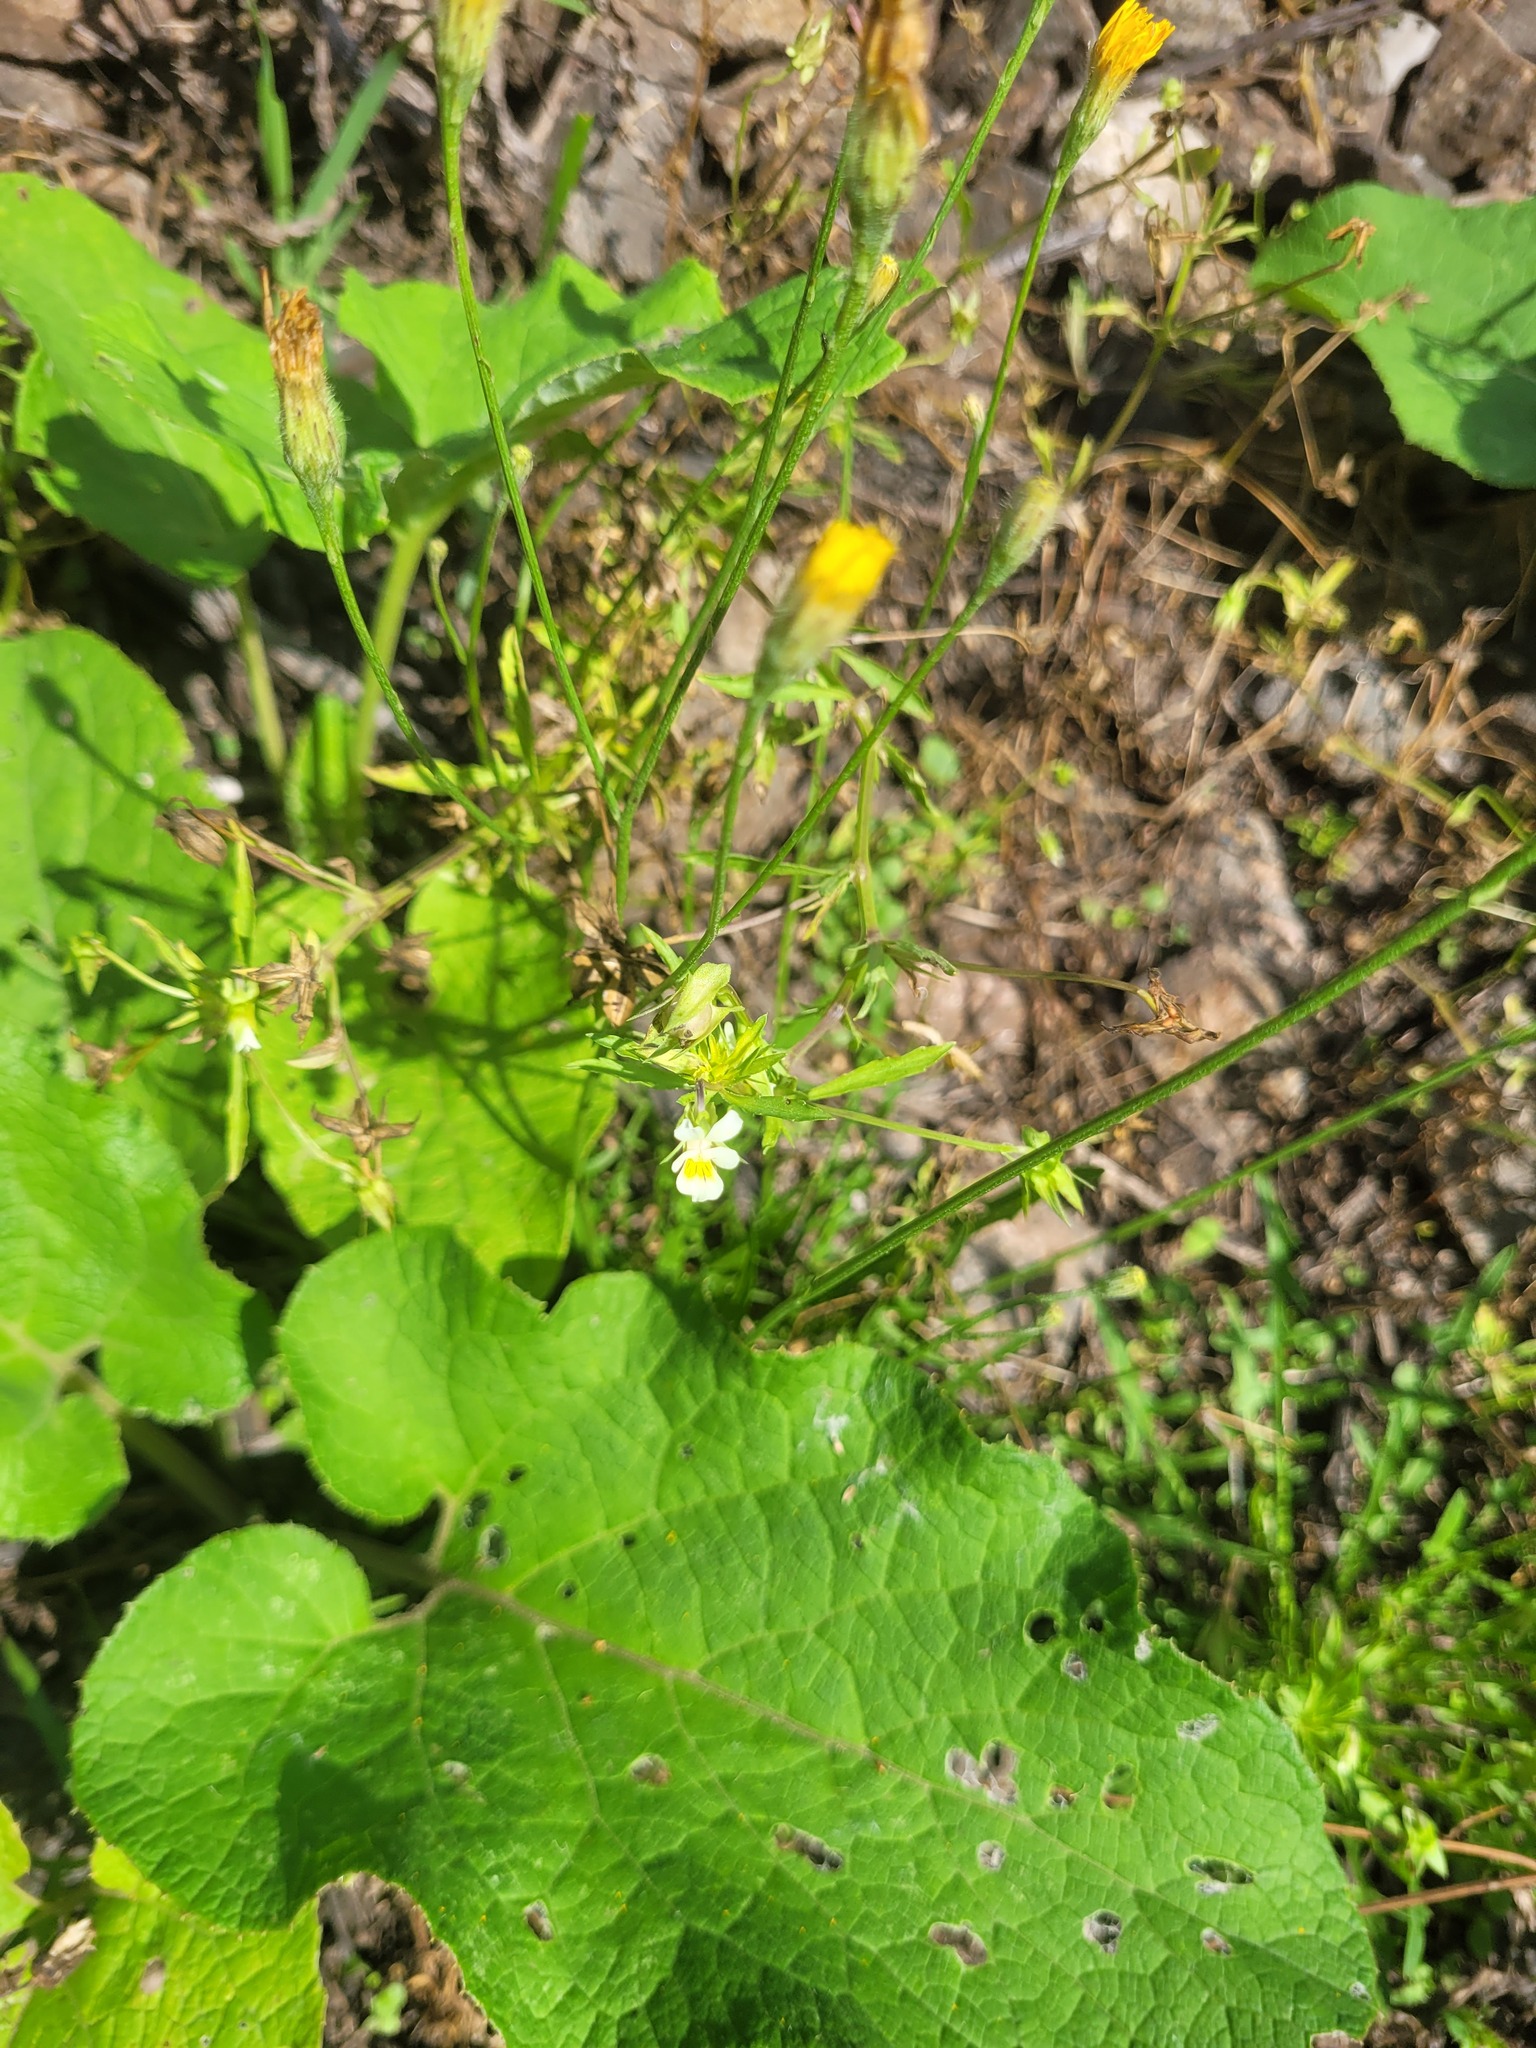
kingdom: Plantae
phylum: Tracheophyta
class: Magnoliopsida
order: Malpighiales
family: Violaceae
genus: Viola
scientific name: Viola arvensis
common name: Field pansy
